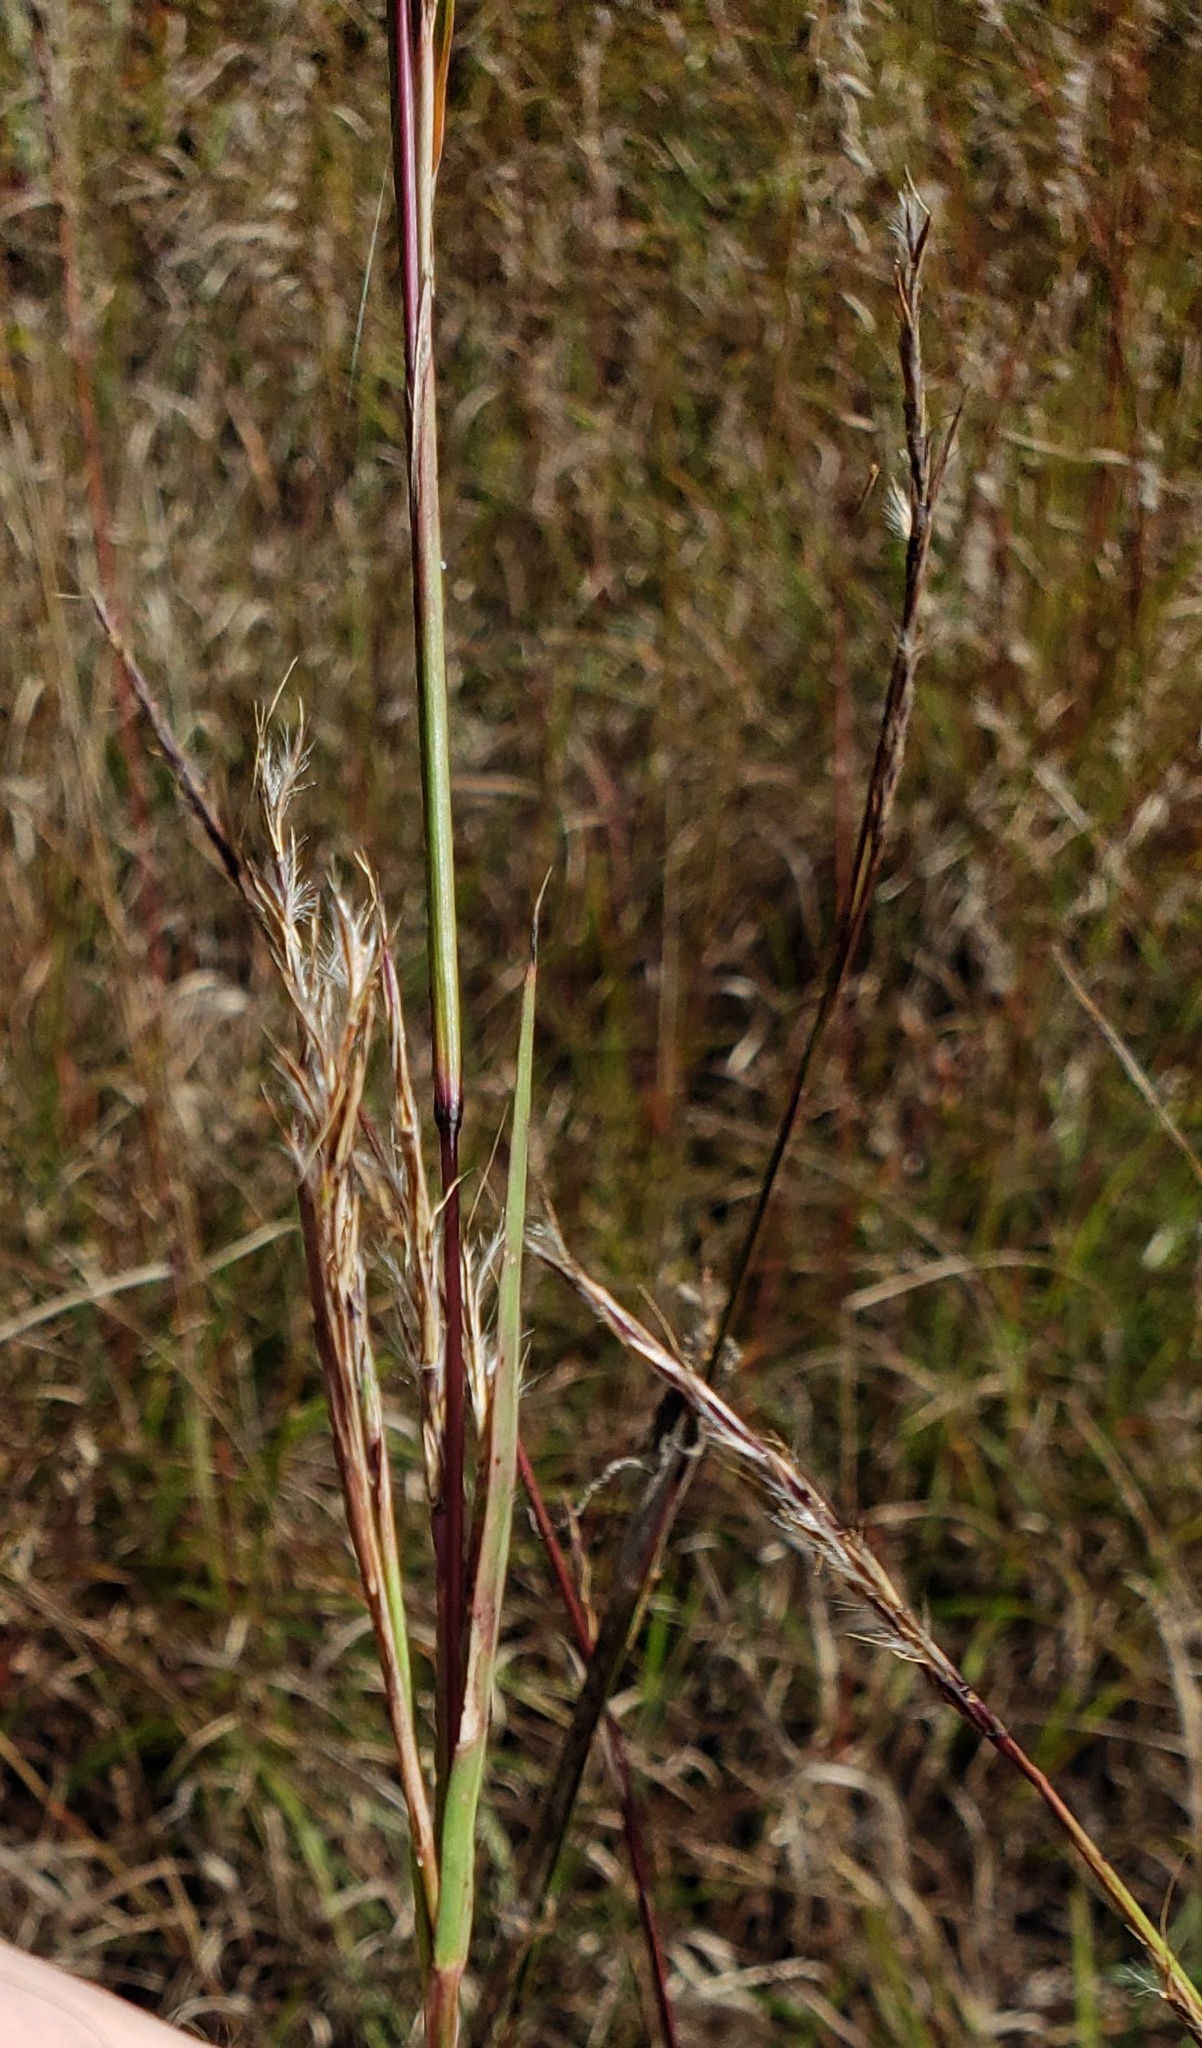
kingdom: Plantae
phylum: Tracheophyta
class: Liliopsida
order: Poales
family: Poaceae
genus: Schizachyrium
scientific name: Schizachyrium scoparium
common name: Little bluestem
